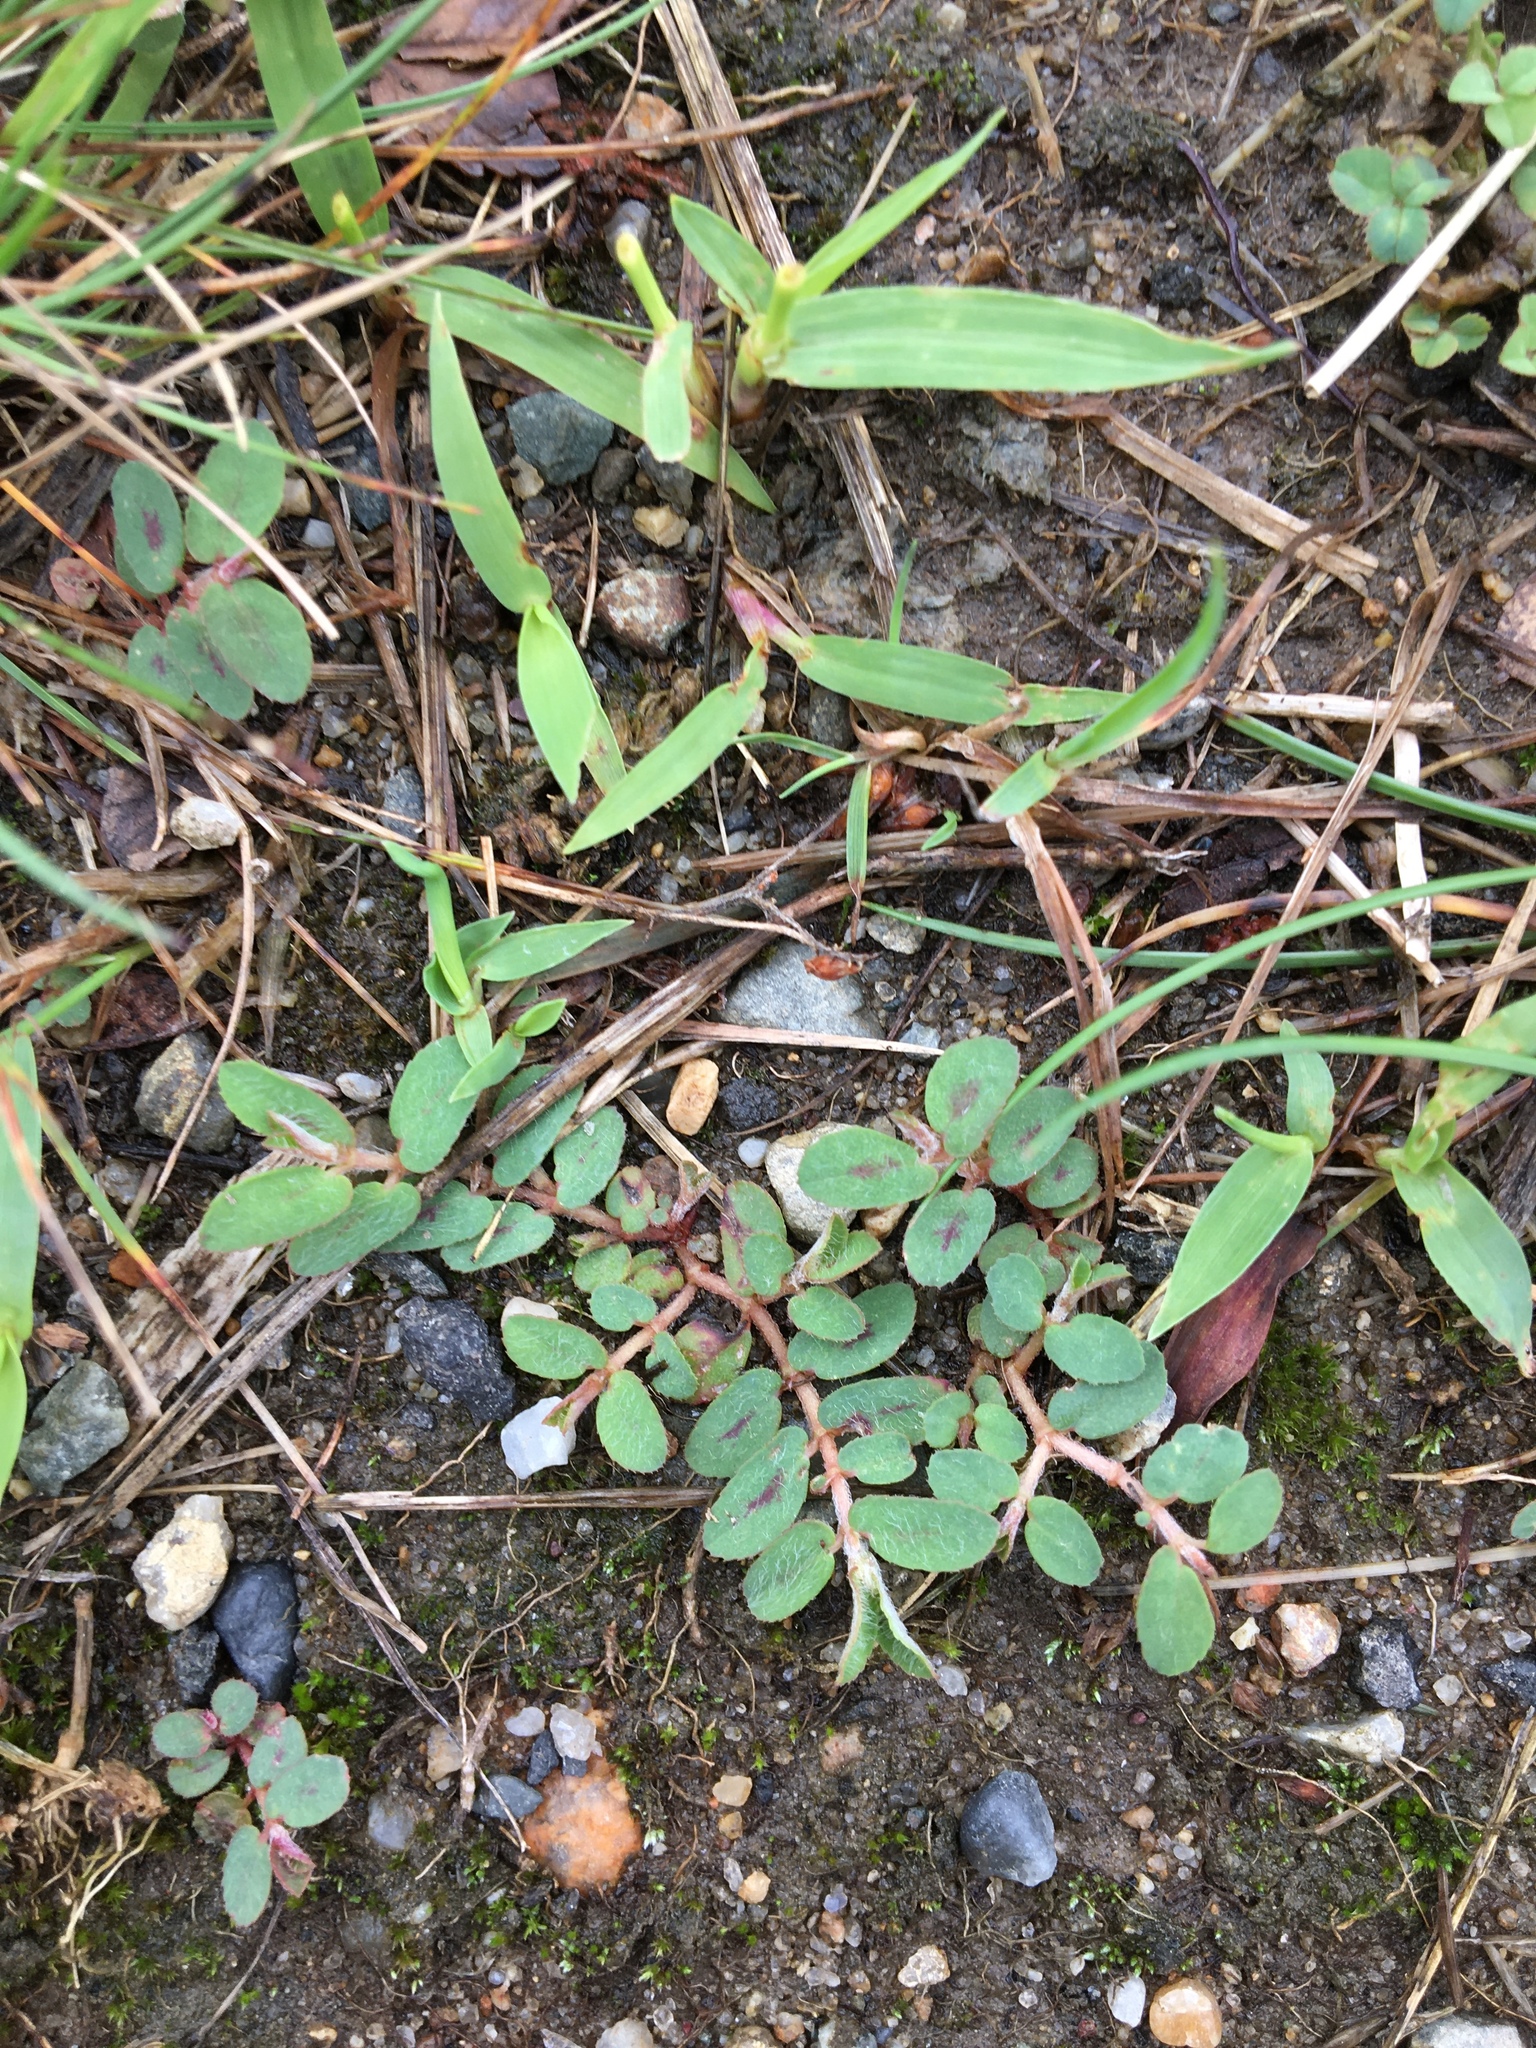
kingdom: Plantae
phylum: Tracheophyta
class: Magnoliopsida
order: Malpighiales
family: Euphorbiaceae
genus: Euphorbia
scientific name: Euphorbia maculata
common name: Spotted spurge
